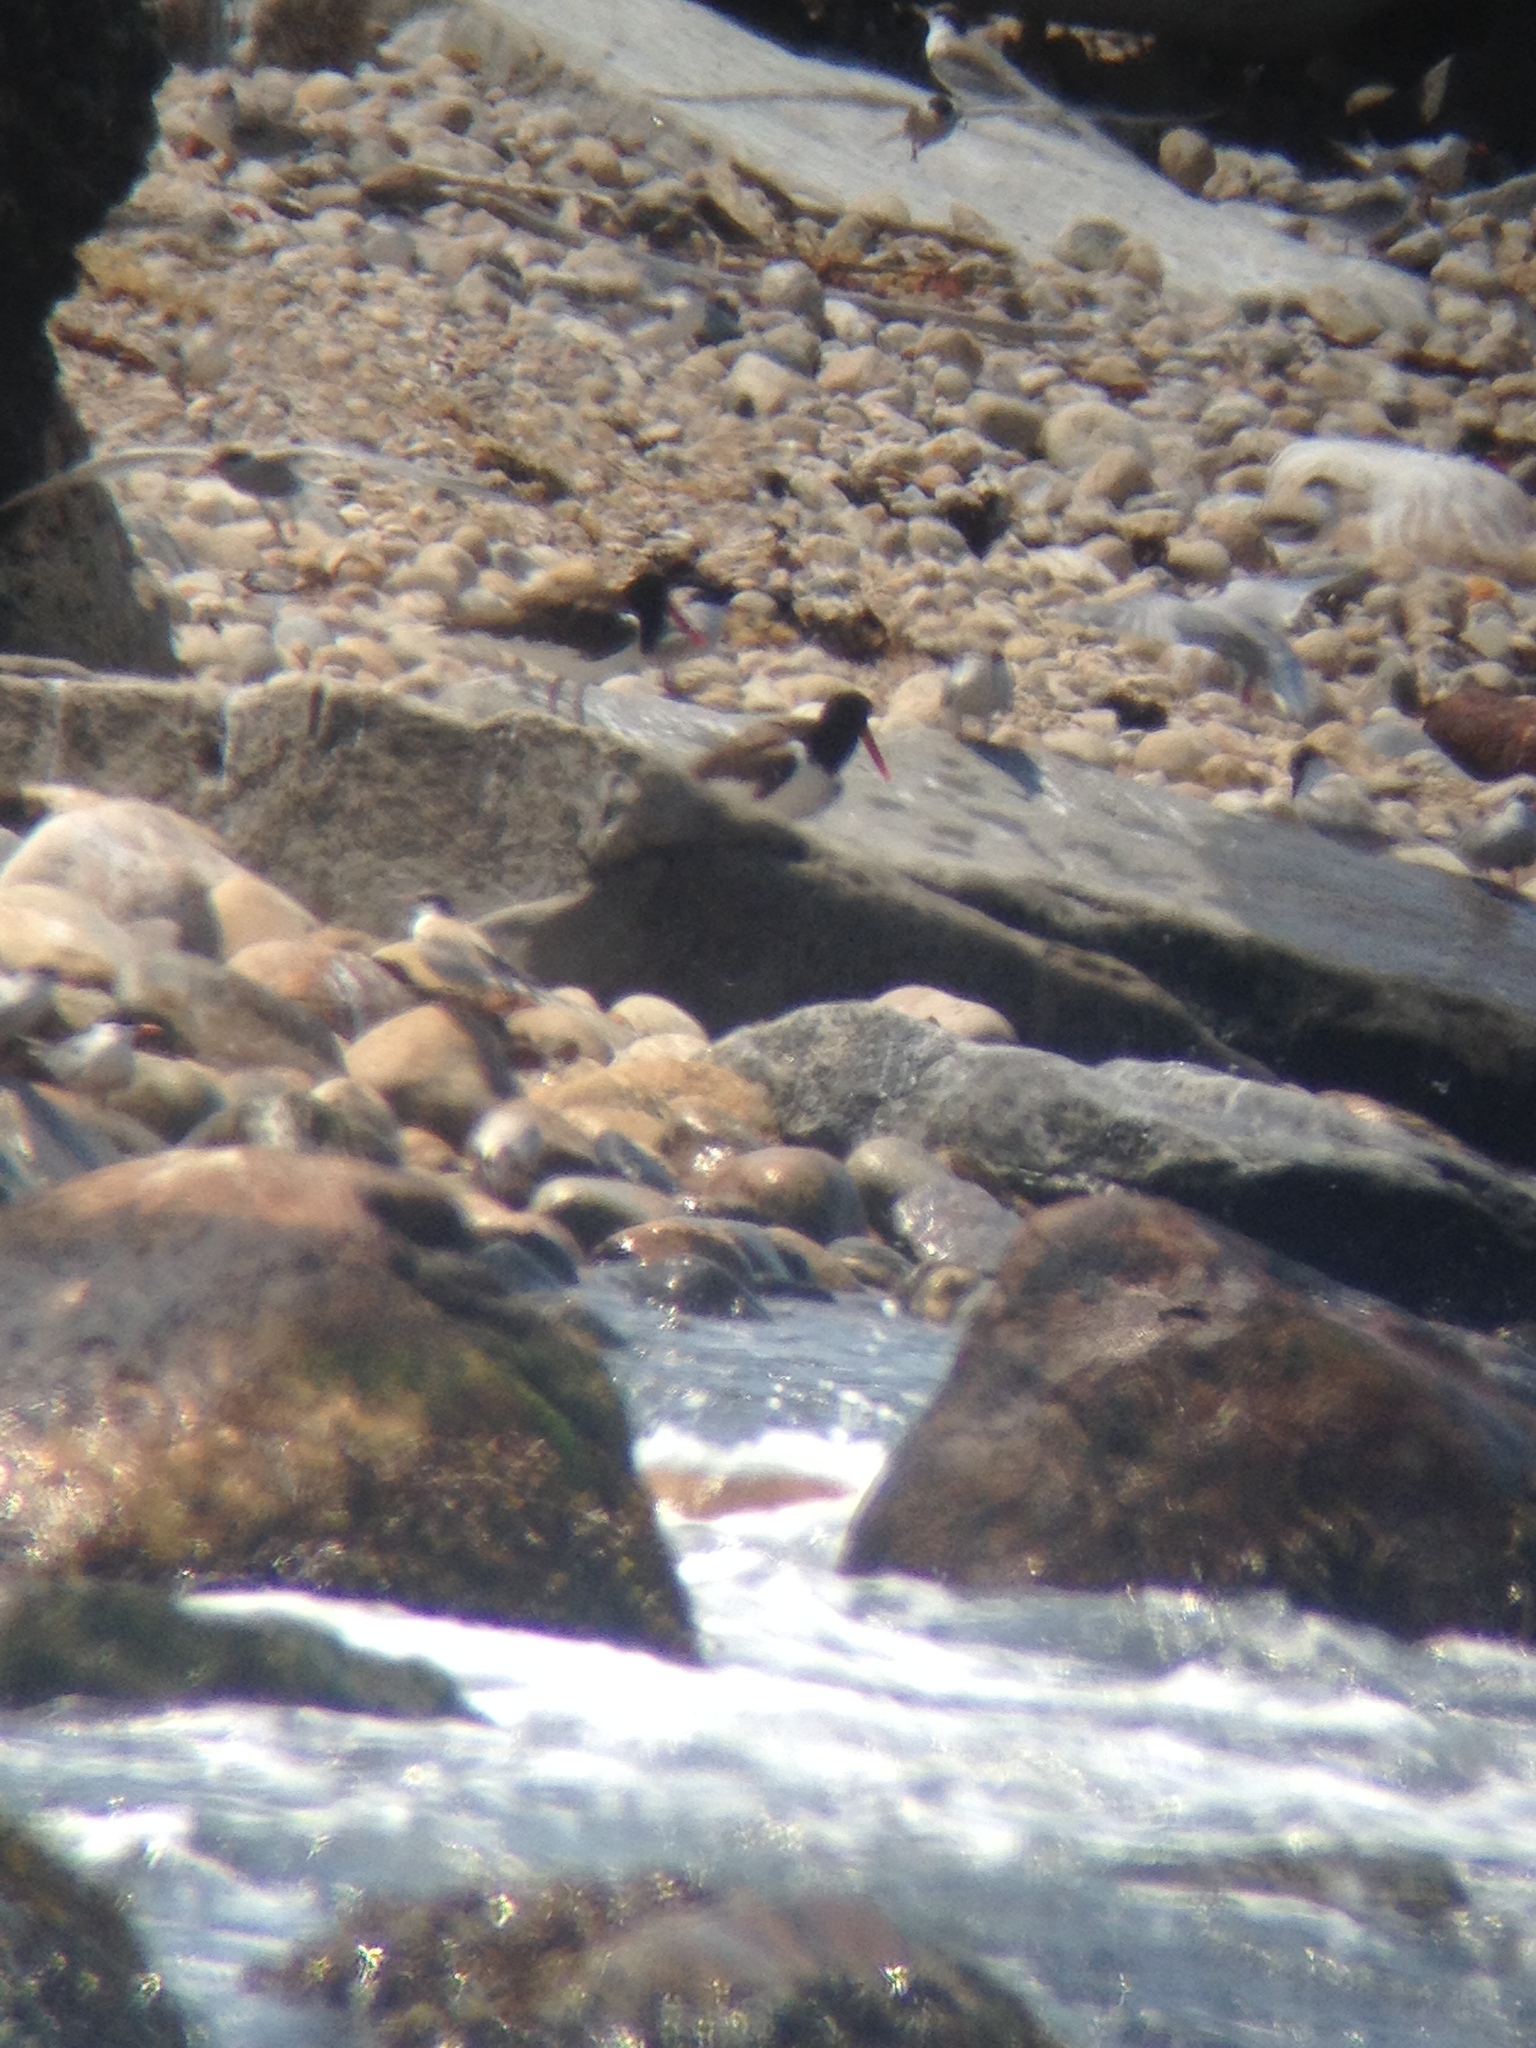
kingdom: Animalia
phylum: Chordata
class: Aves
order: Charadriiformes
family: Haematopodidae
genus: Haematopus
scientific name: Haematopus palliatus
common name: American oystercatcher
